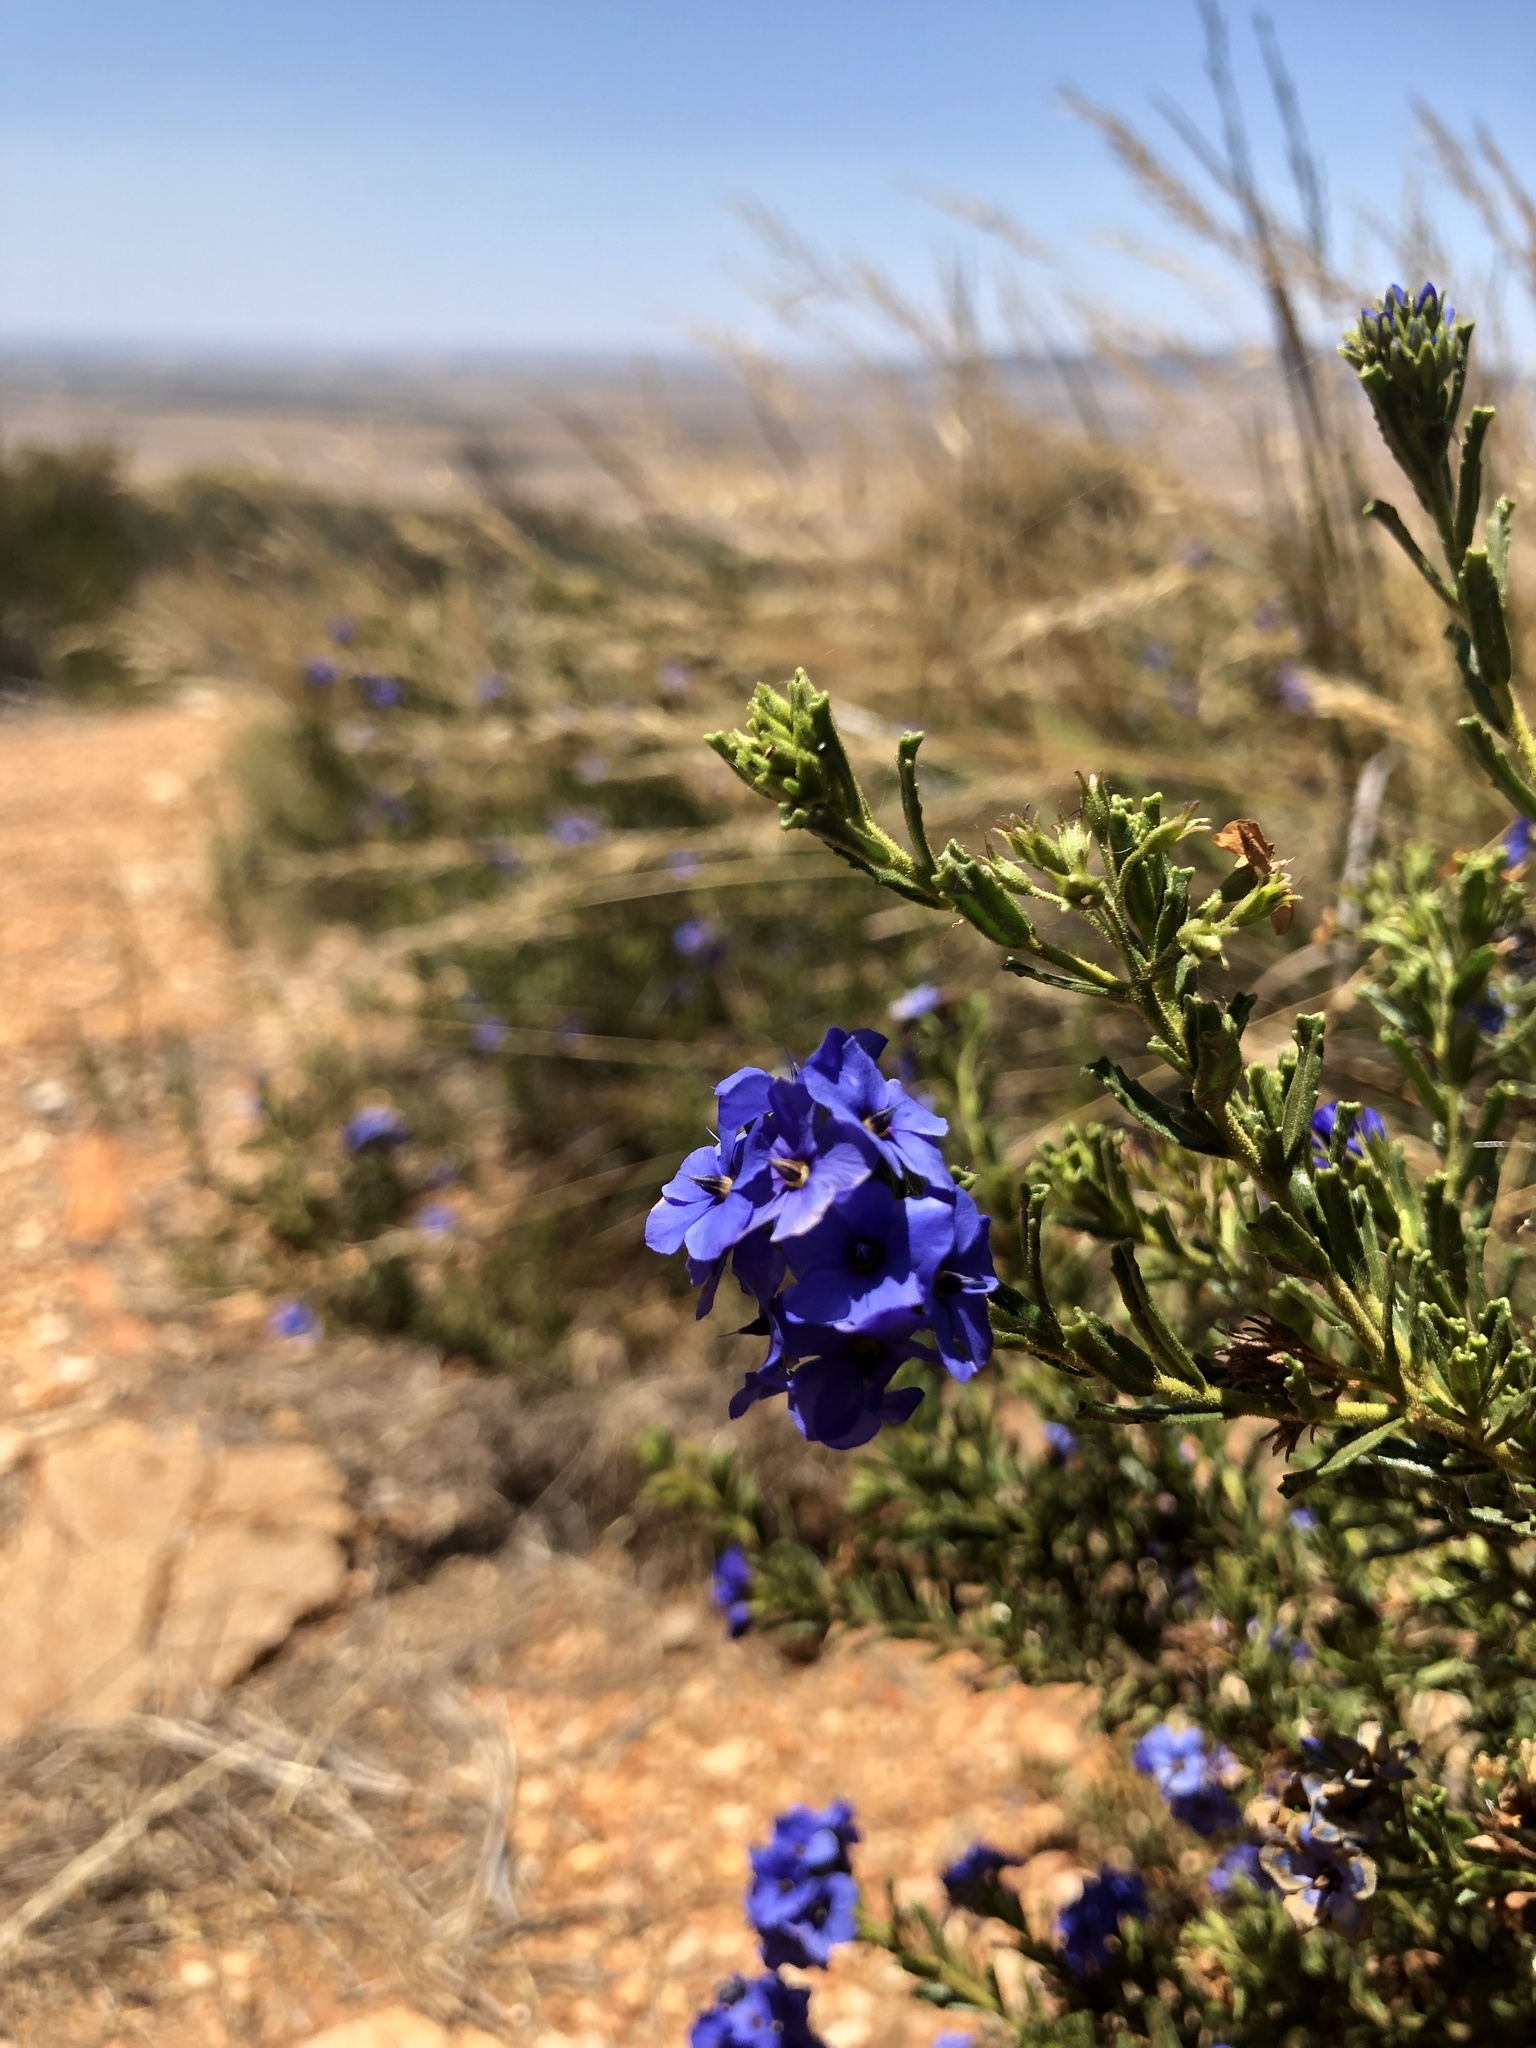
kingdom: Plantae
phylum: Tracheophyta
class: Magnoliopsida
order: Boraginales
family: Ehretiaceae
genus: Halgania
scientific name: Halgania cyanea
